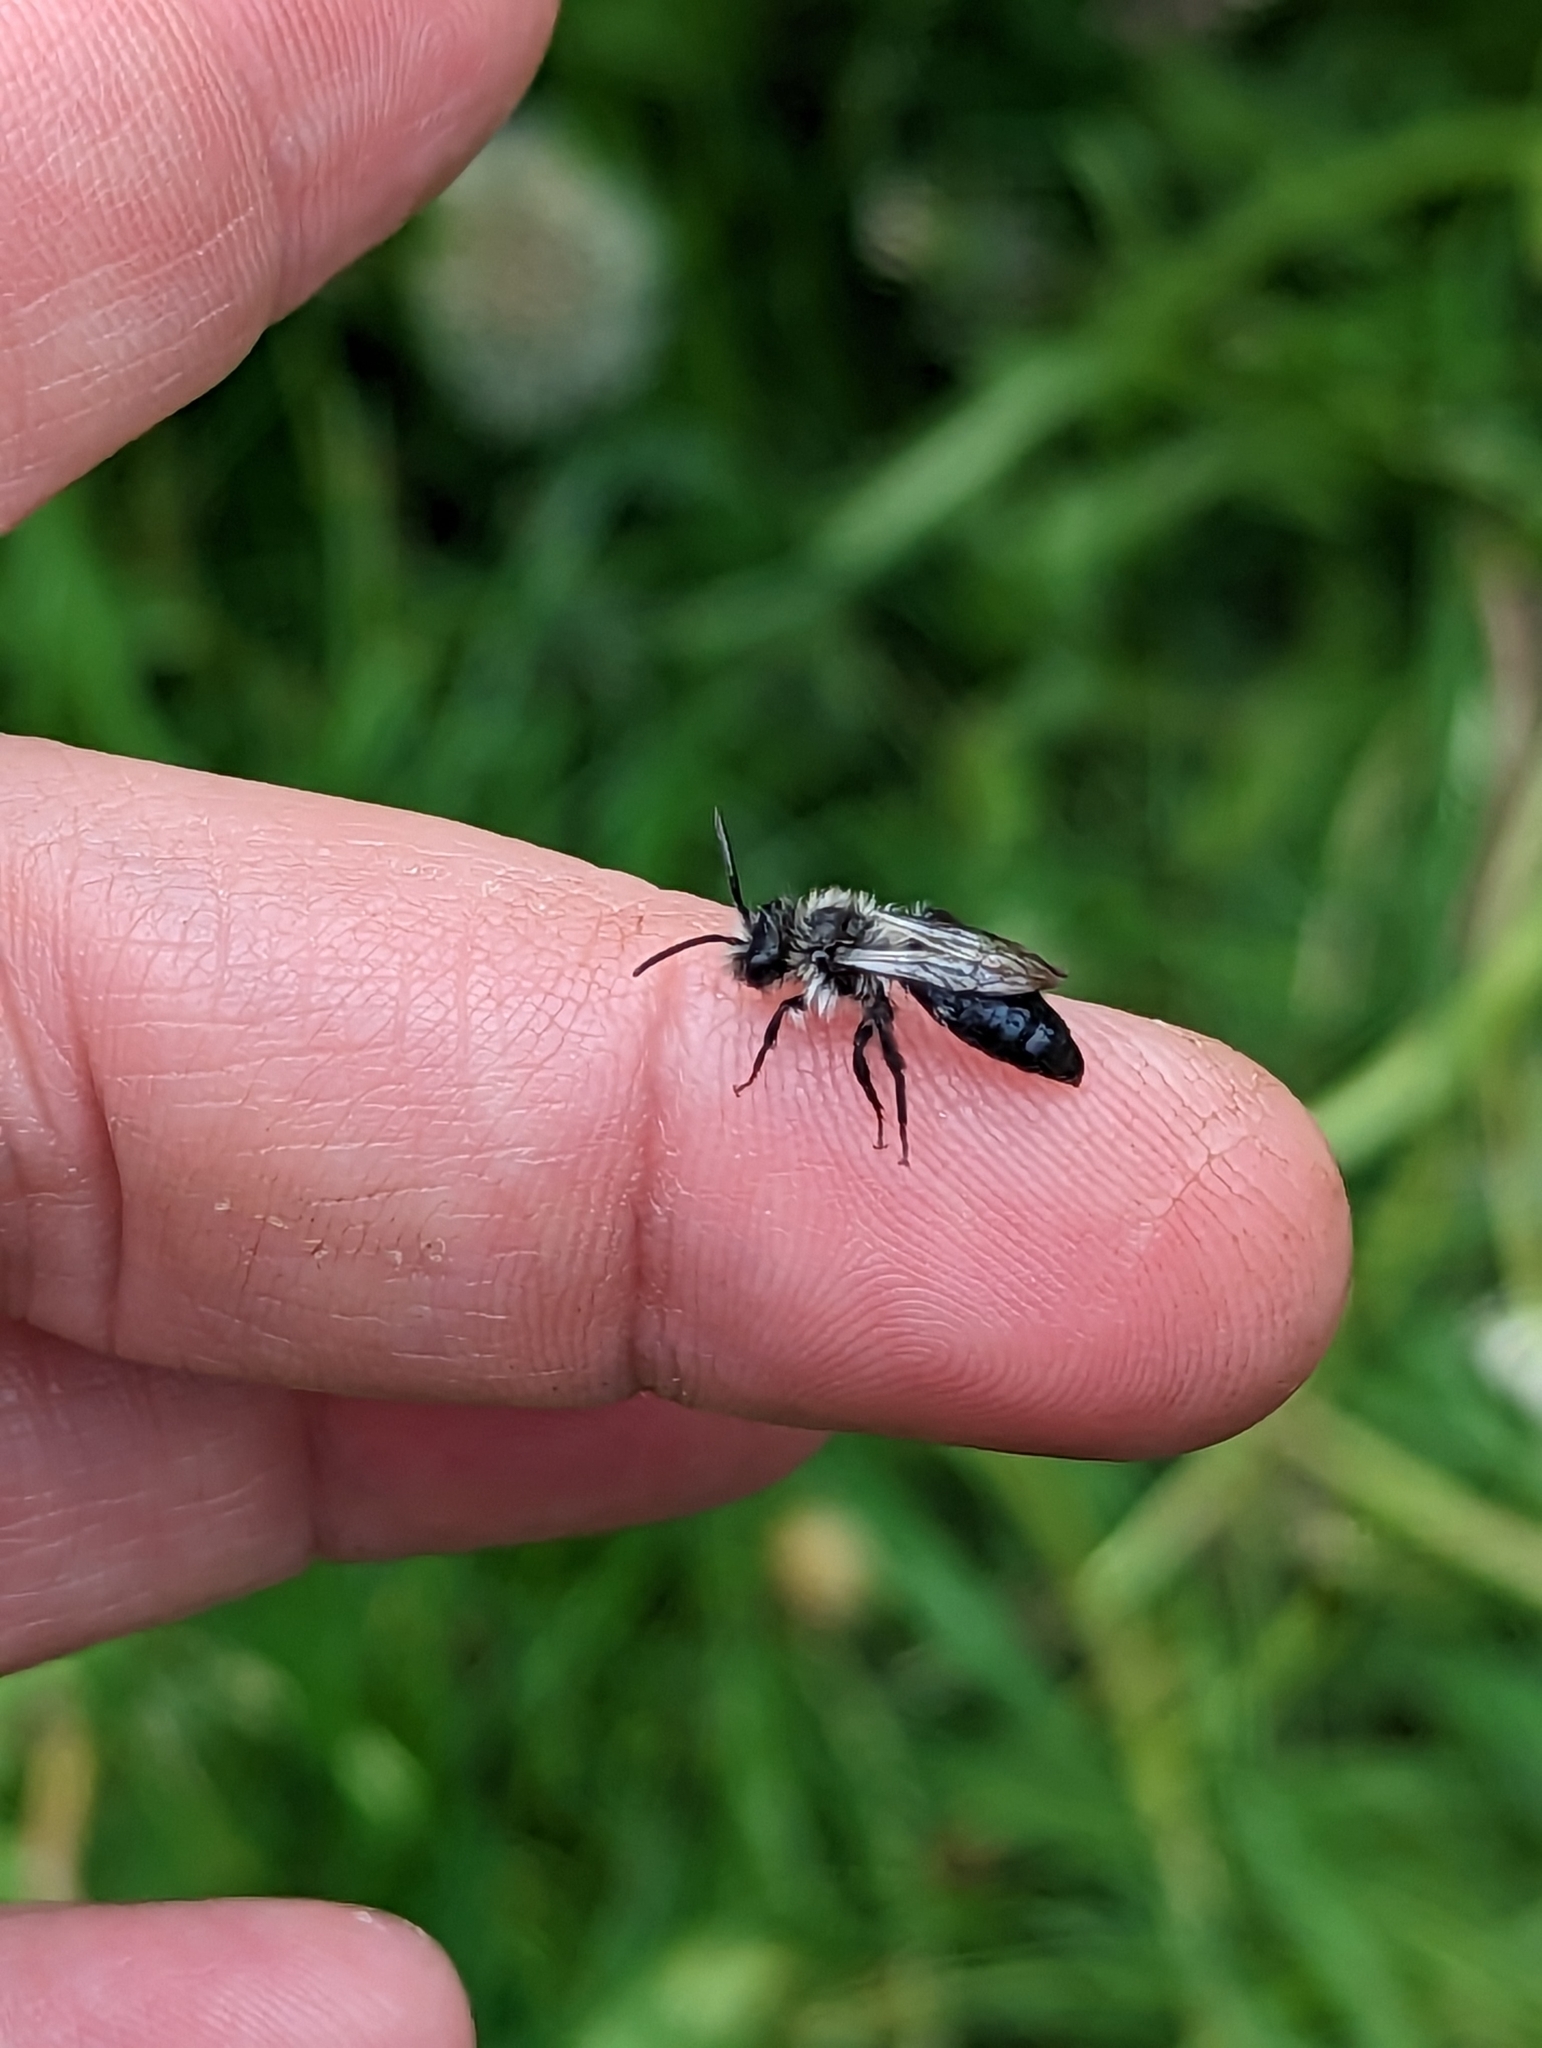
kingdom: Animalia
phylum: Arthropoda
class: Insecta
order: Hymenoptera
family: Andrenidae
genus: Andrena
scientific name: Andrena cineraria
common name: Ashy mining bee
